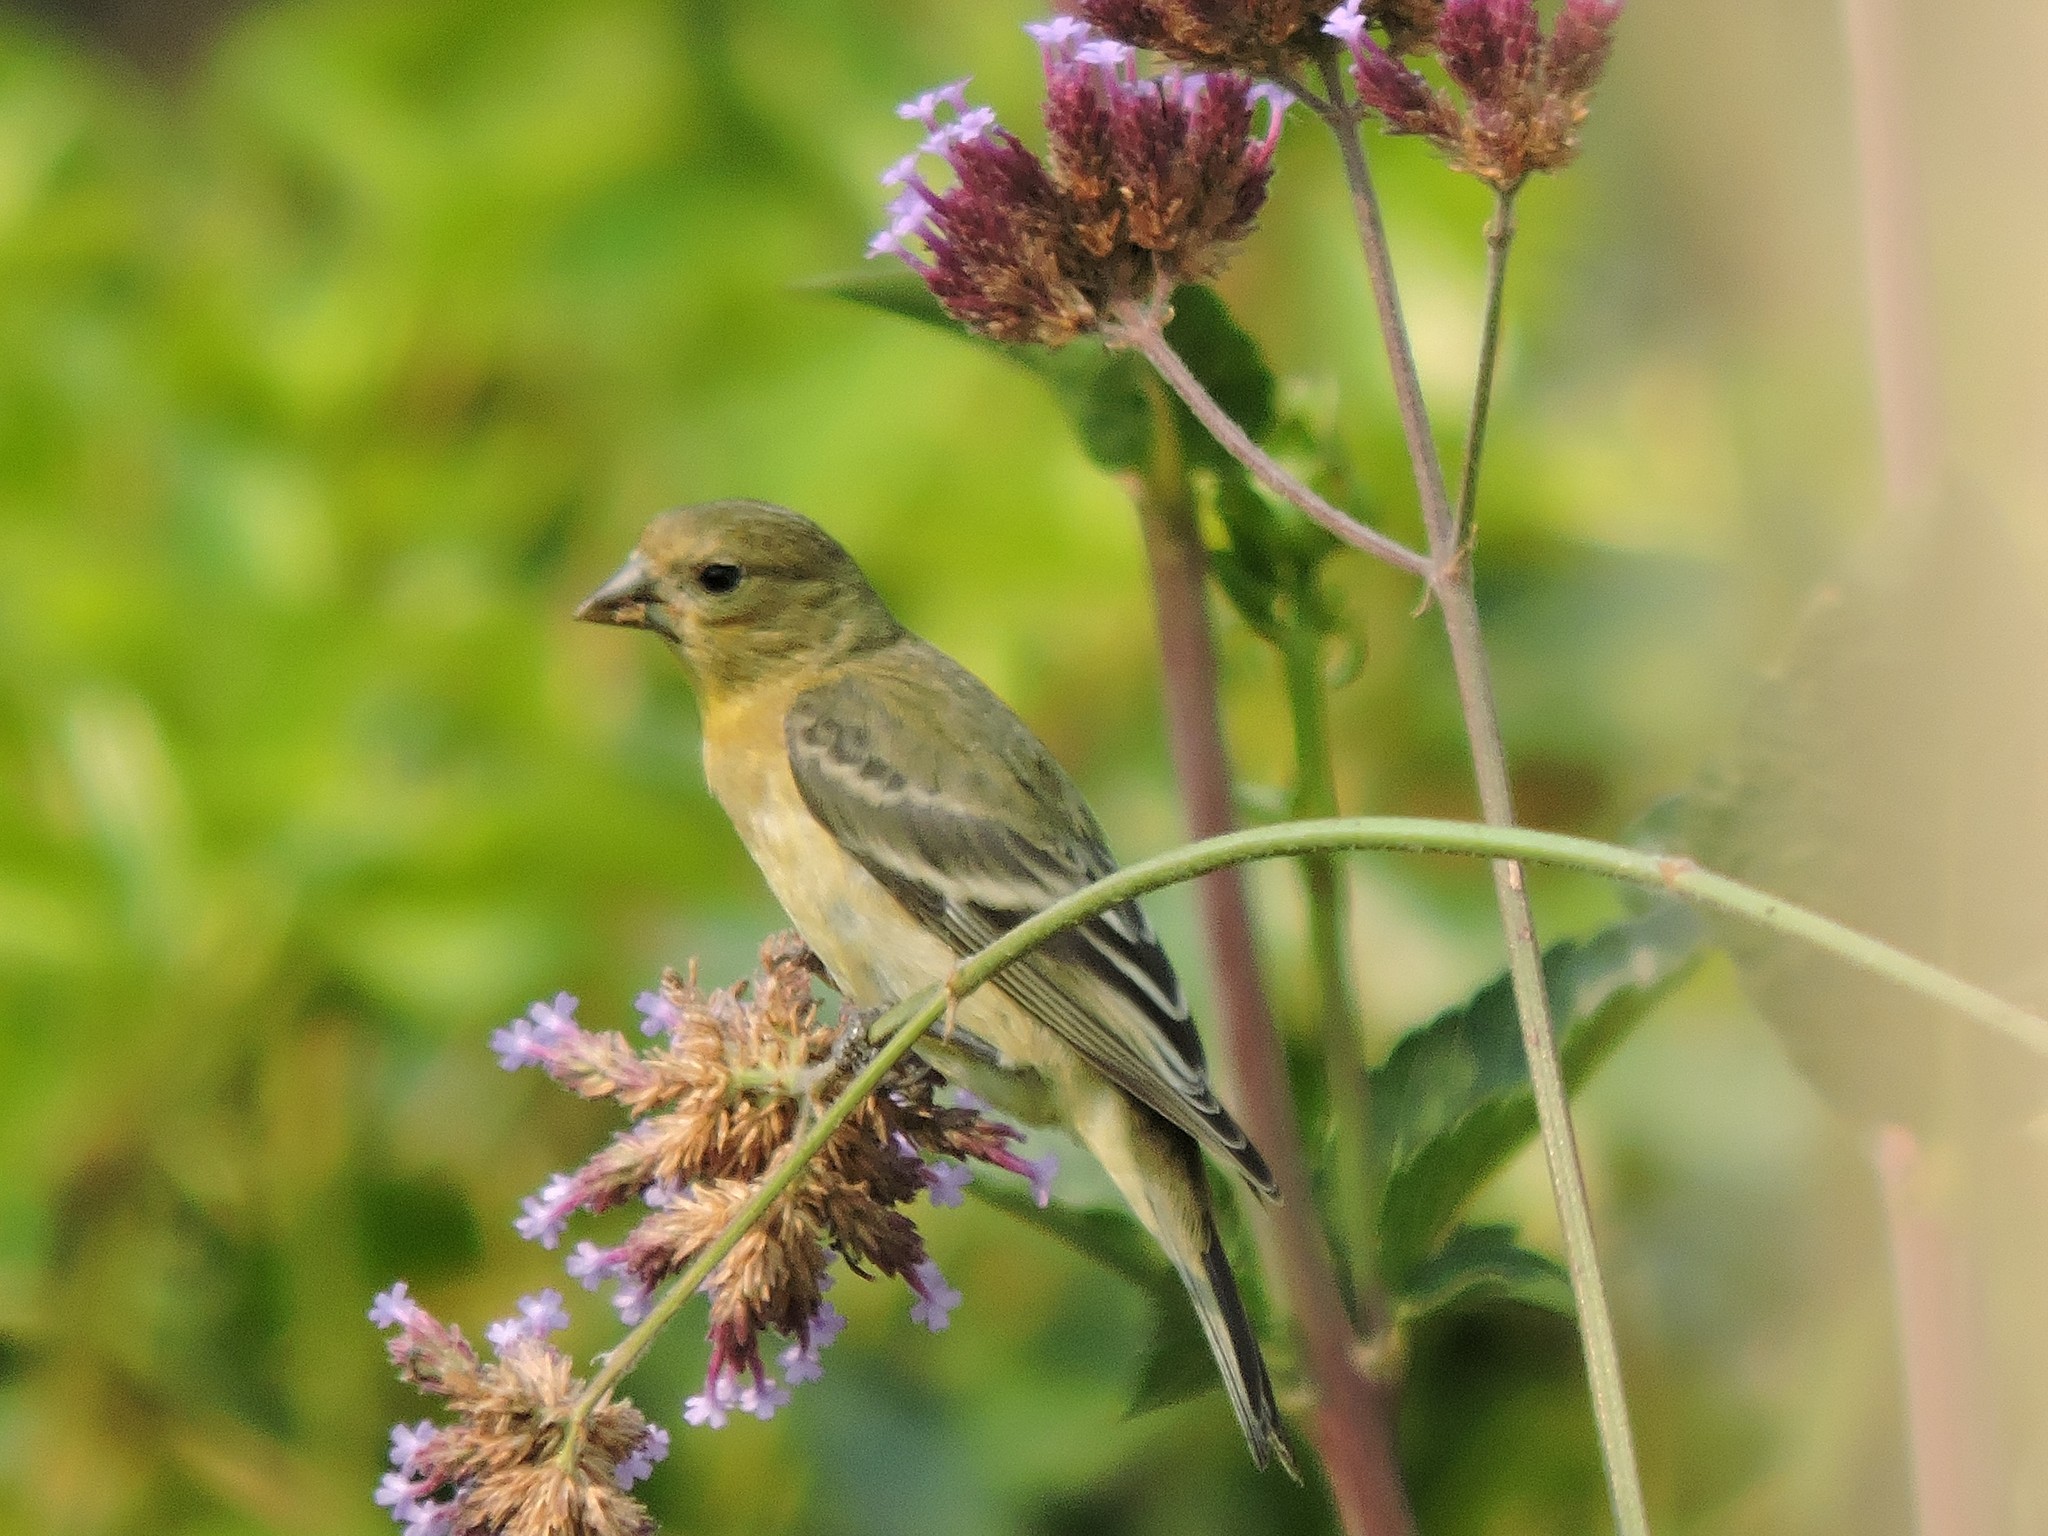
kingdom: Animalia
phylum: Chordata
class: Aves
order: Passeriformes
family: Fringillidae
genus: Spinus
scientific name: Spinus psaltria
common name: Lesser goldfinch
